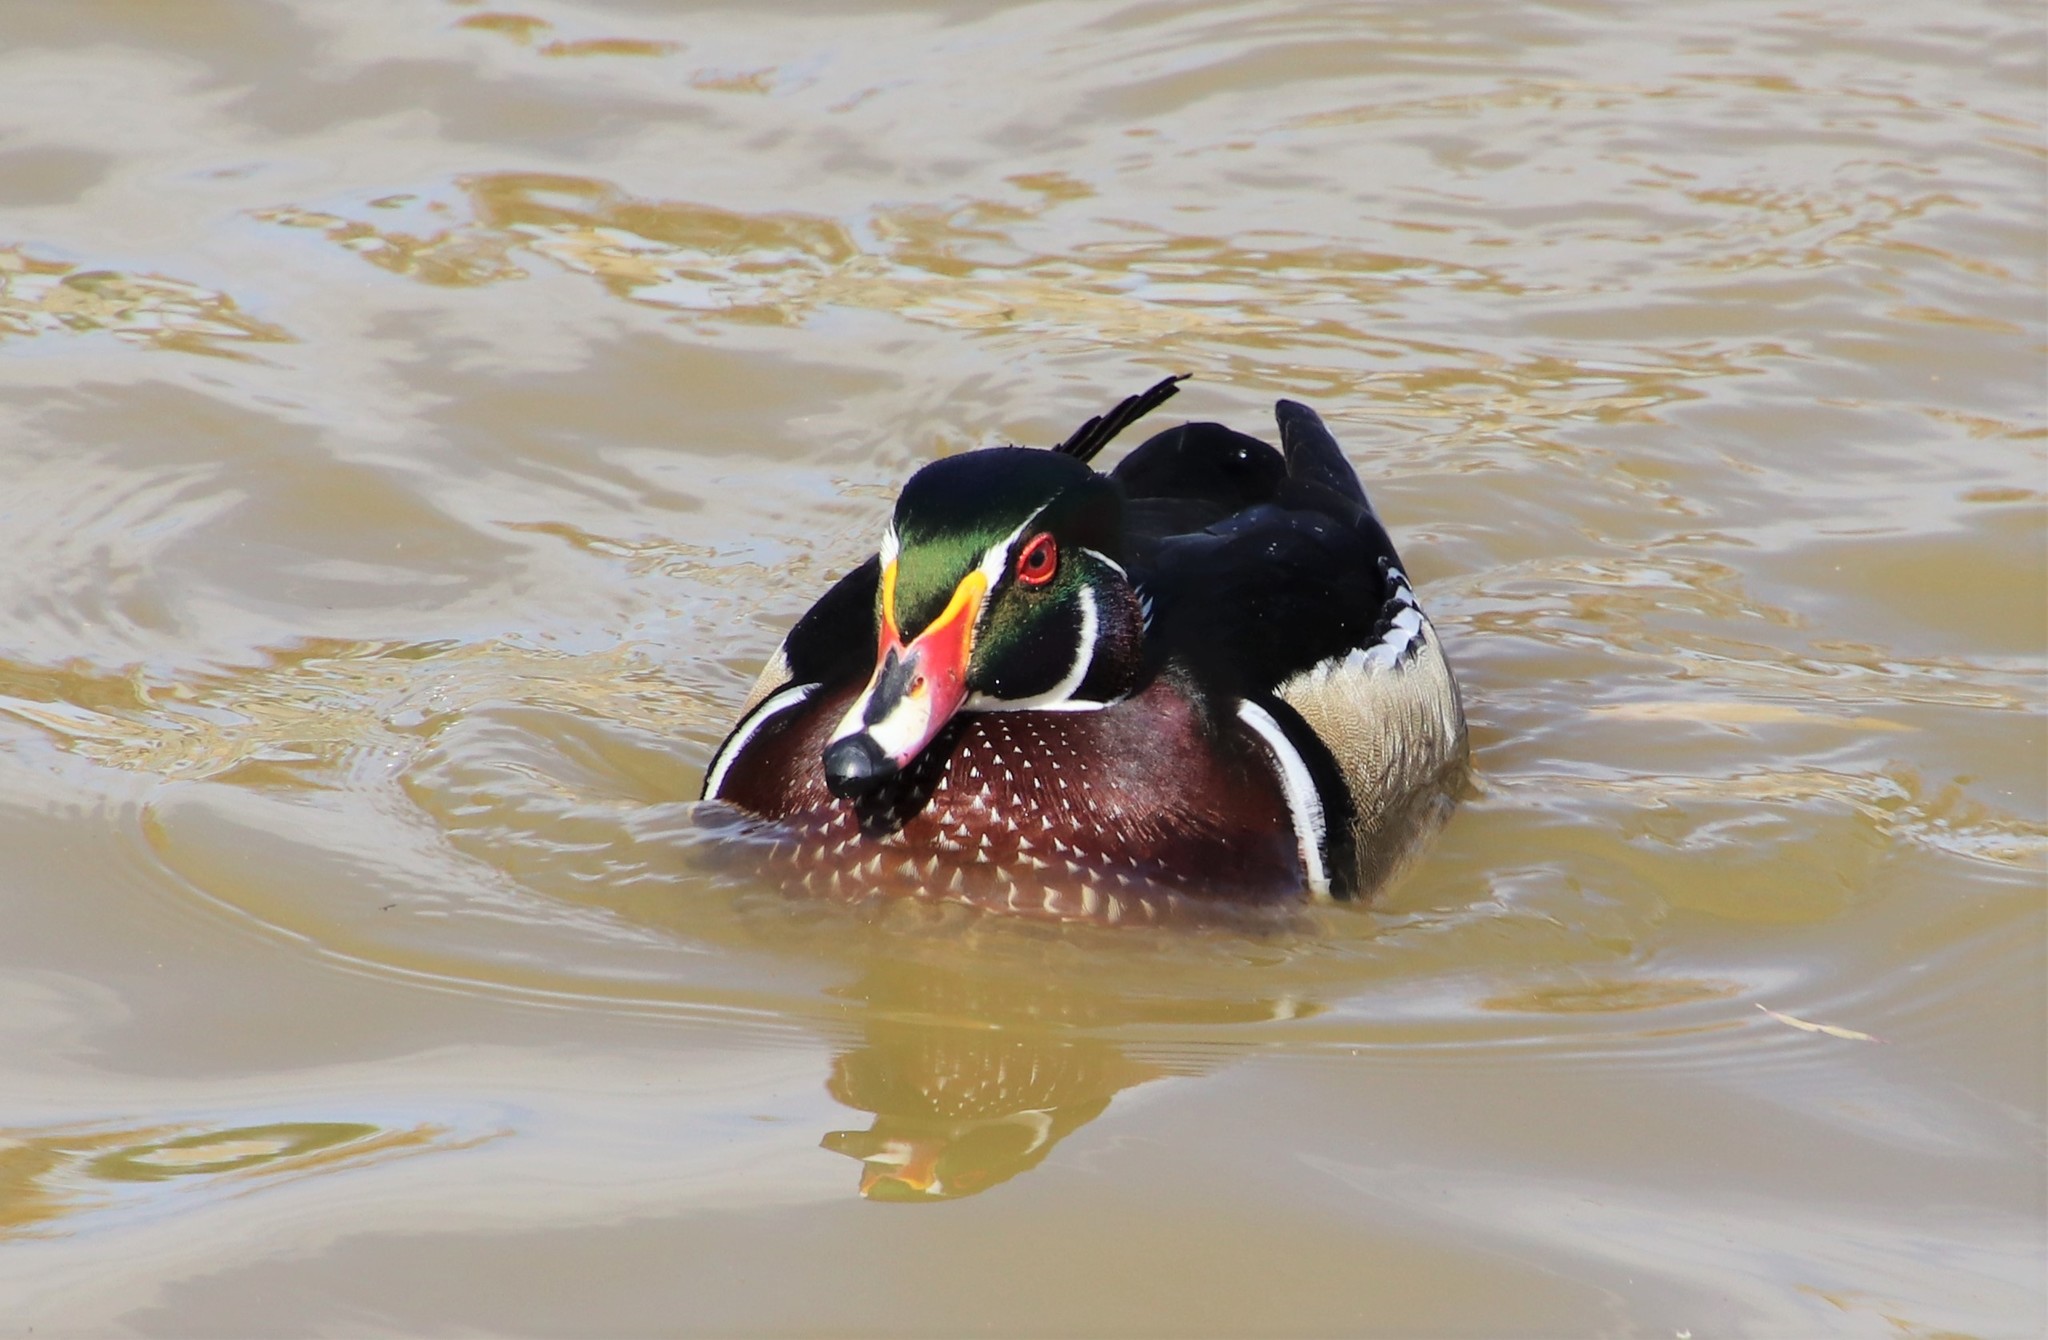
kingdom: Animalia
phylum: Chordata
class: Aves
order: Anseriformes
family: Anatidae
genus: Aix
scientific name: Aix sponsa
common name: Wood duck
